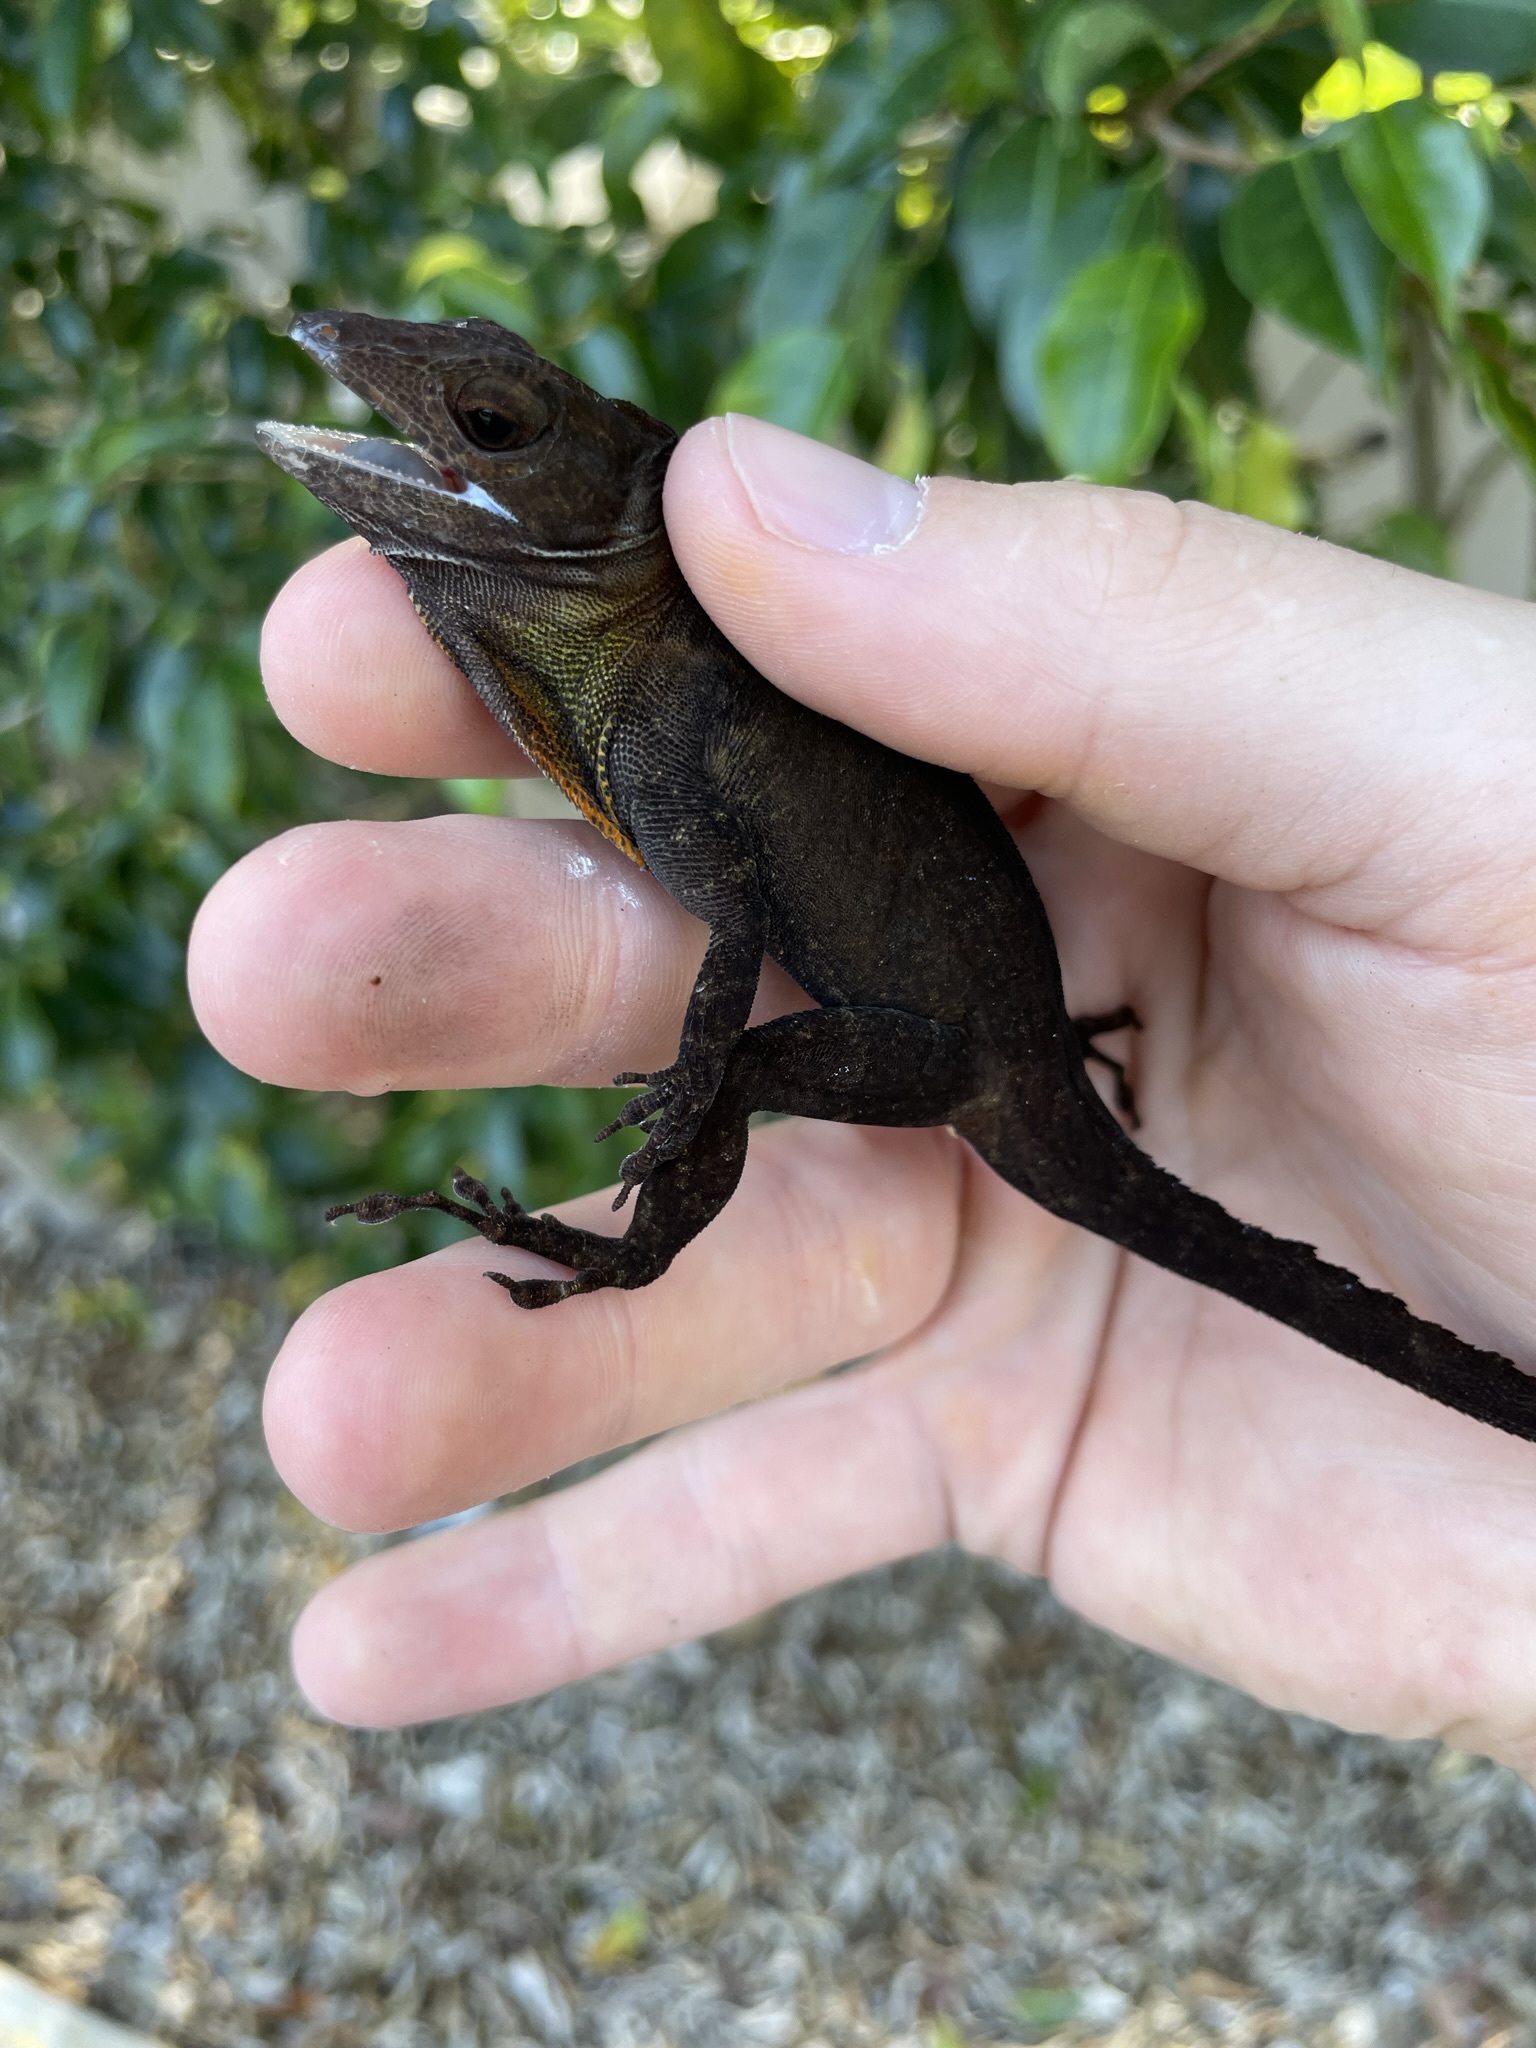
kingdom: Animalia
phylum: Chordata
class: Squamata
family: Dactyloidae
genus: Anolis
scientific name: Anolis cristatellus
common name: Crested anole
